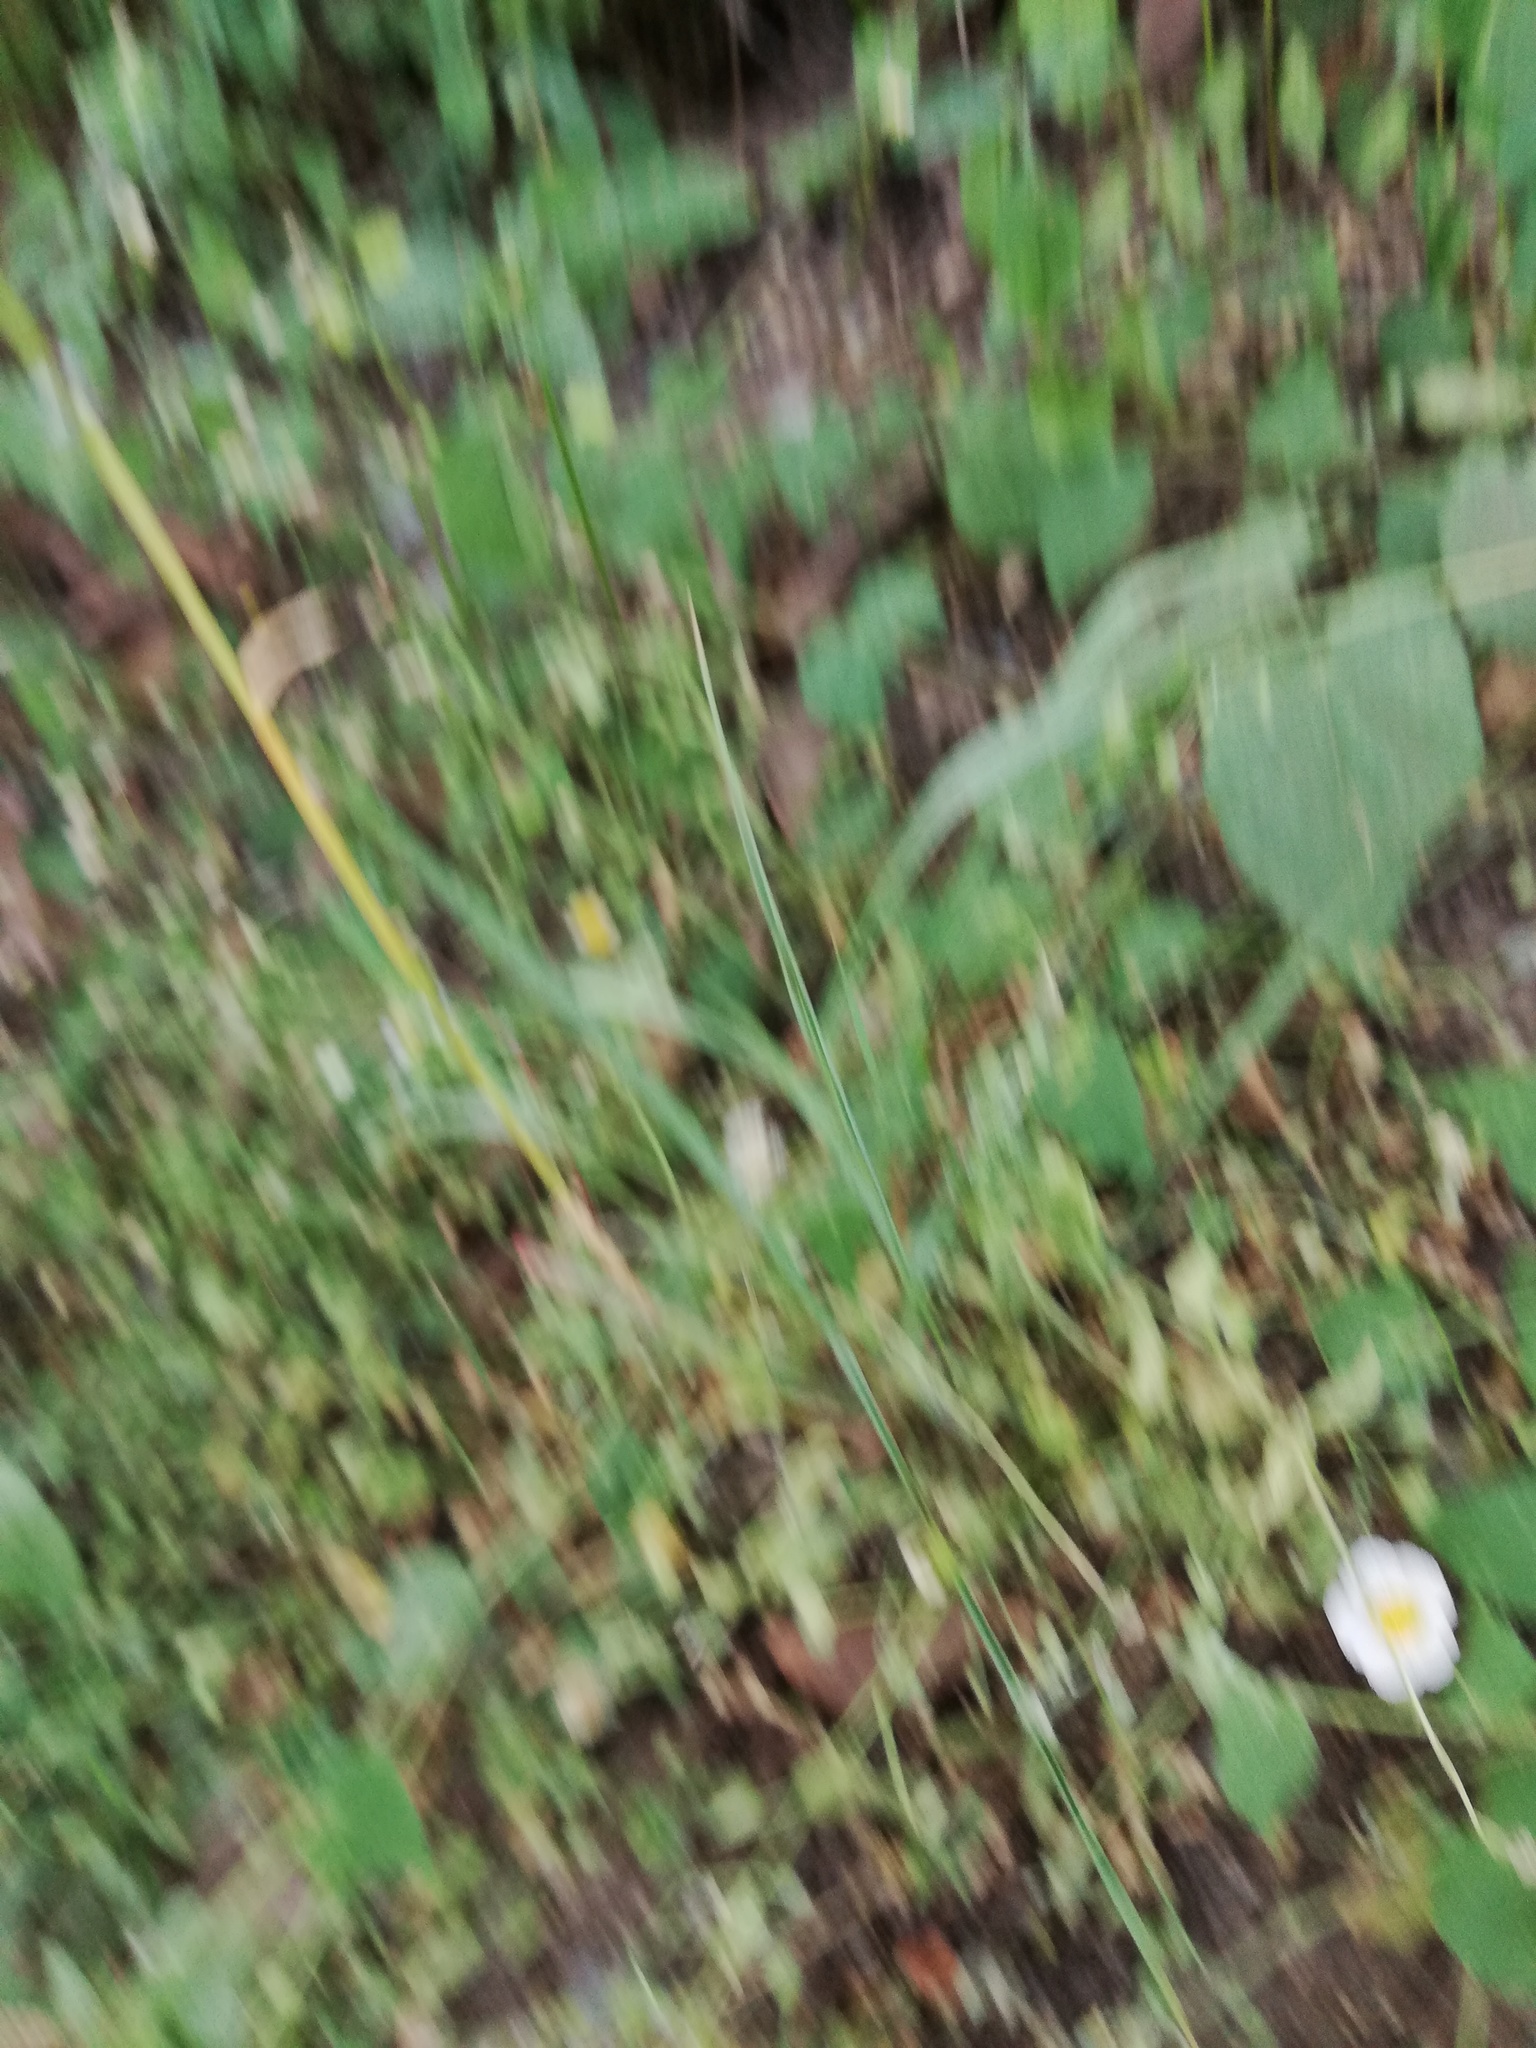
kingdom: Plantae
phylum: Tracheophyta
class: Magnoliopsida
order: Malvales
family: Malvaceae
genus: Herissantia
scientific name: Herissantia crispa
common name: Bladdermallow
